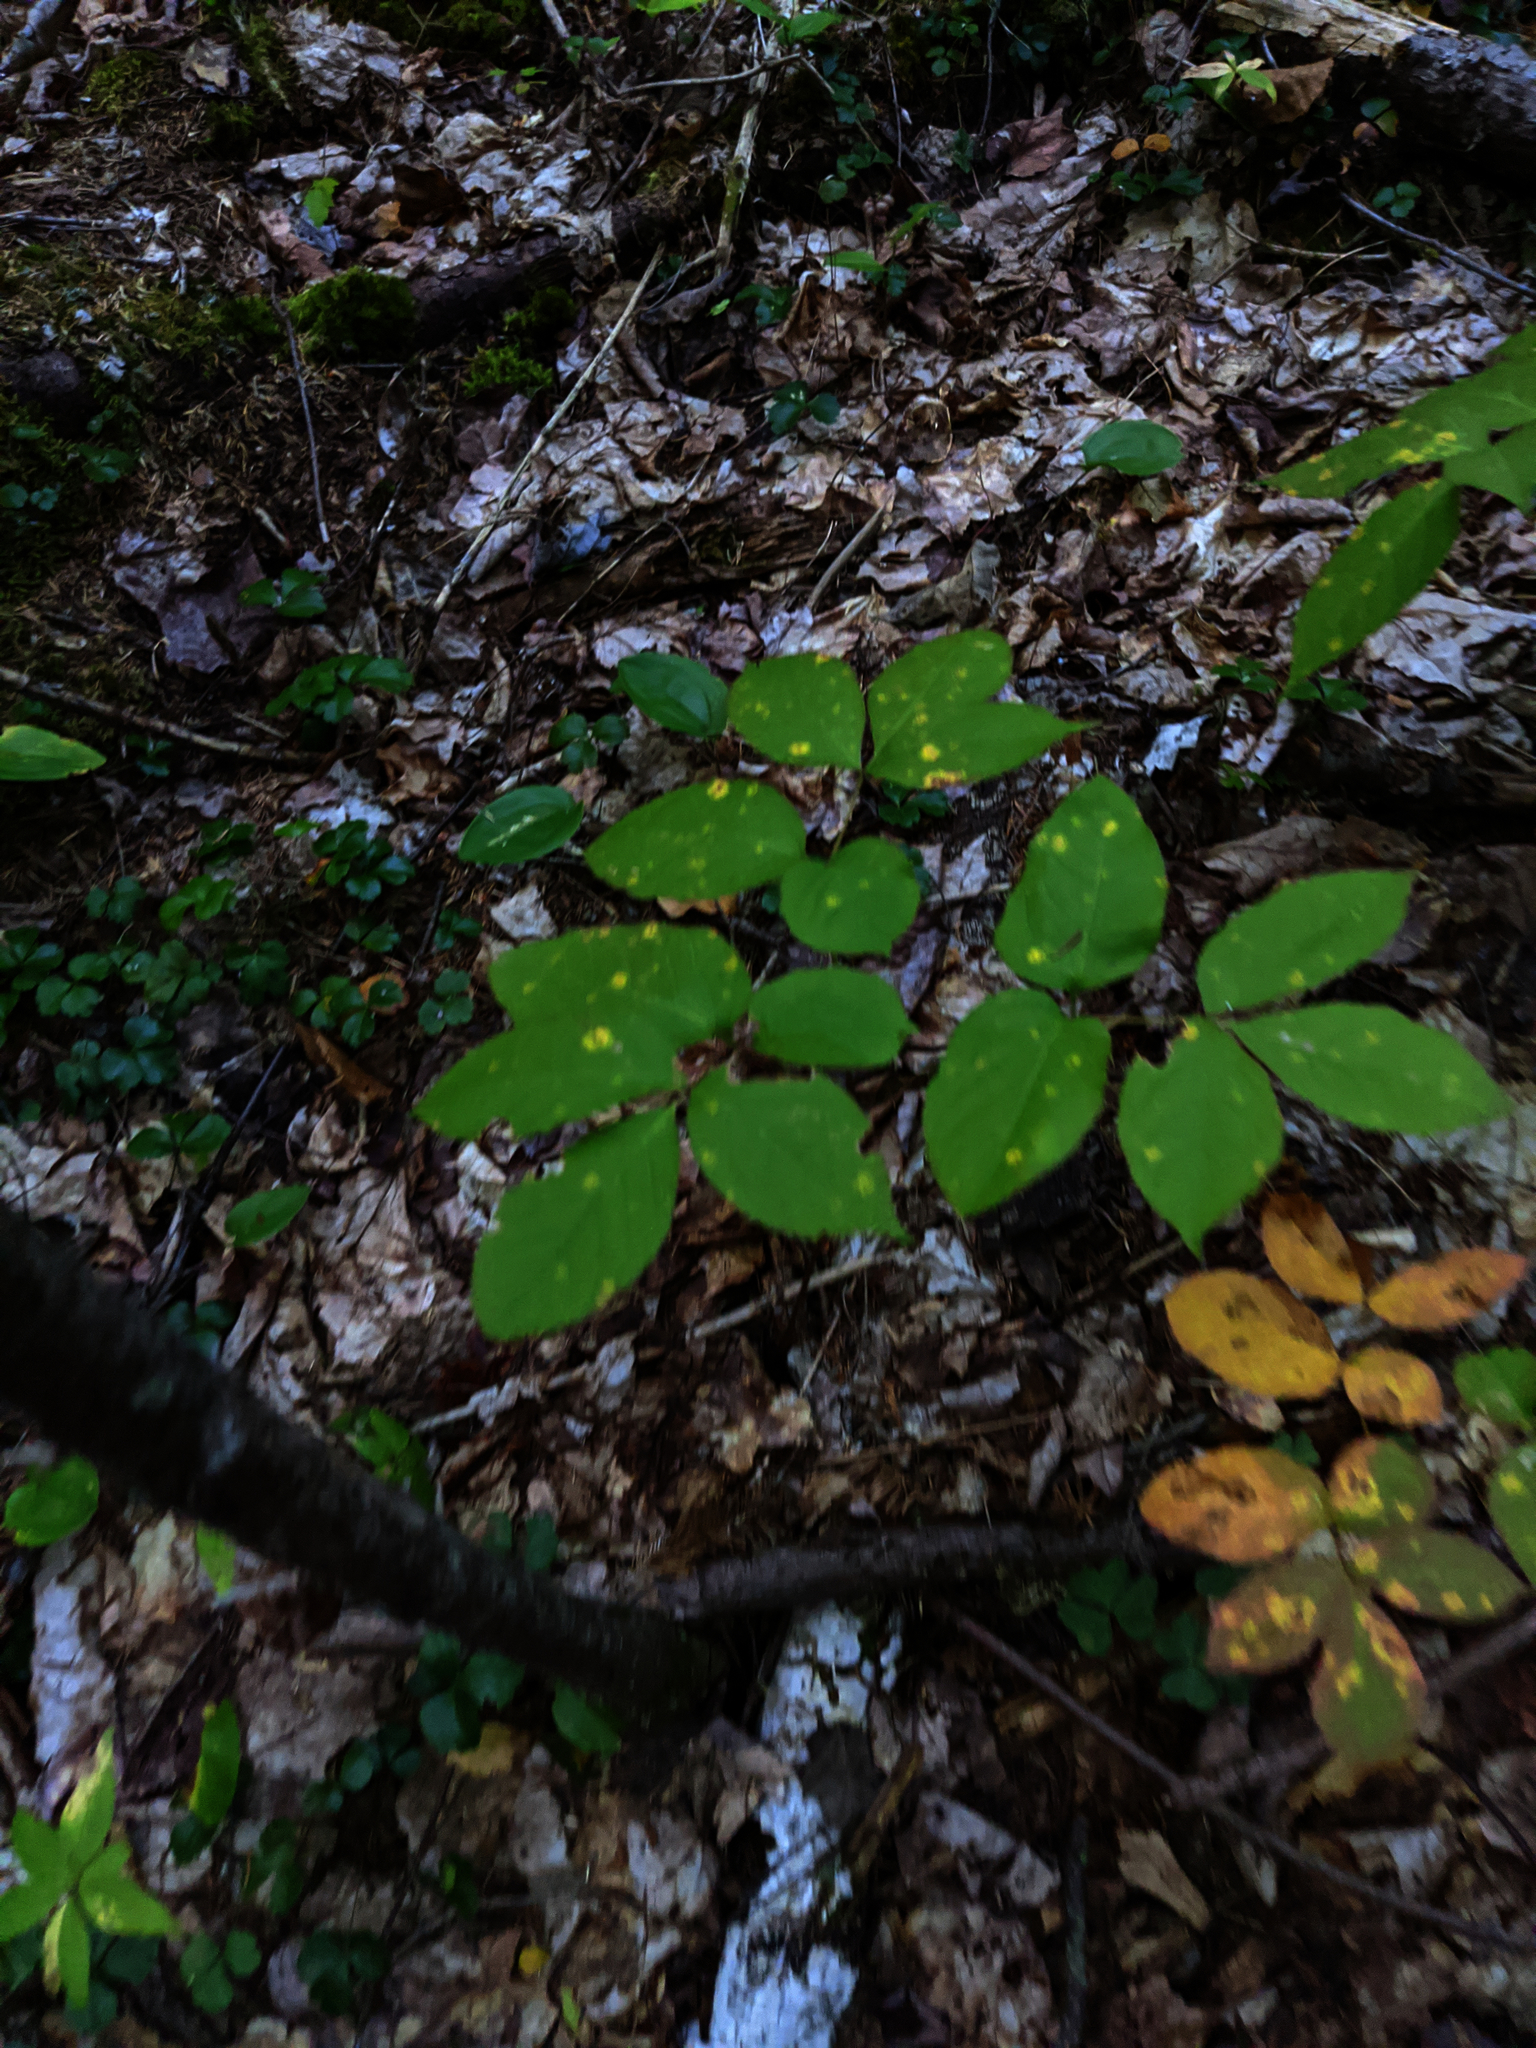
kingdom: Plantae
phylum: Tracheophyta
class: Magnoliopsida
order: Apiales
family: Araliaceae
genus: Aralia
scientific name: Aralia nudicaulis
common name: Wild sarsaparilla
